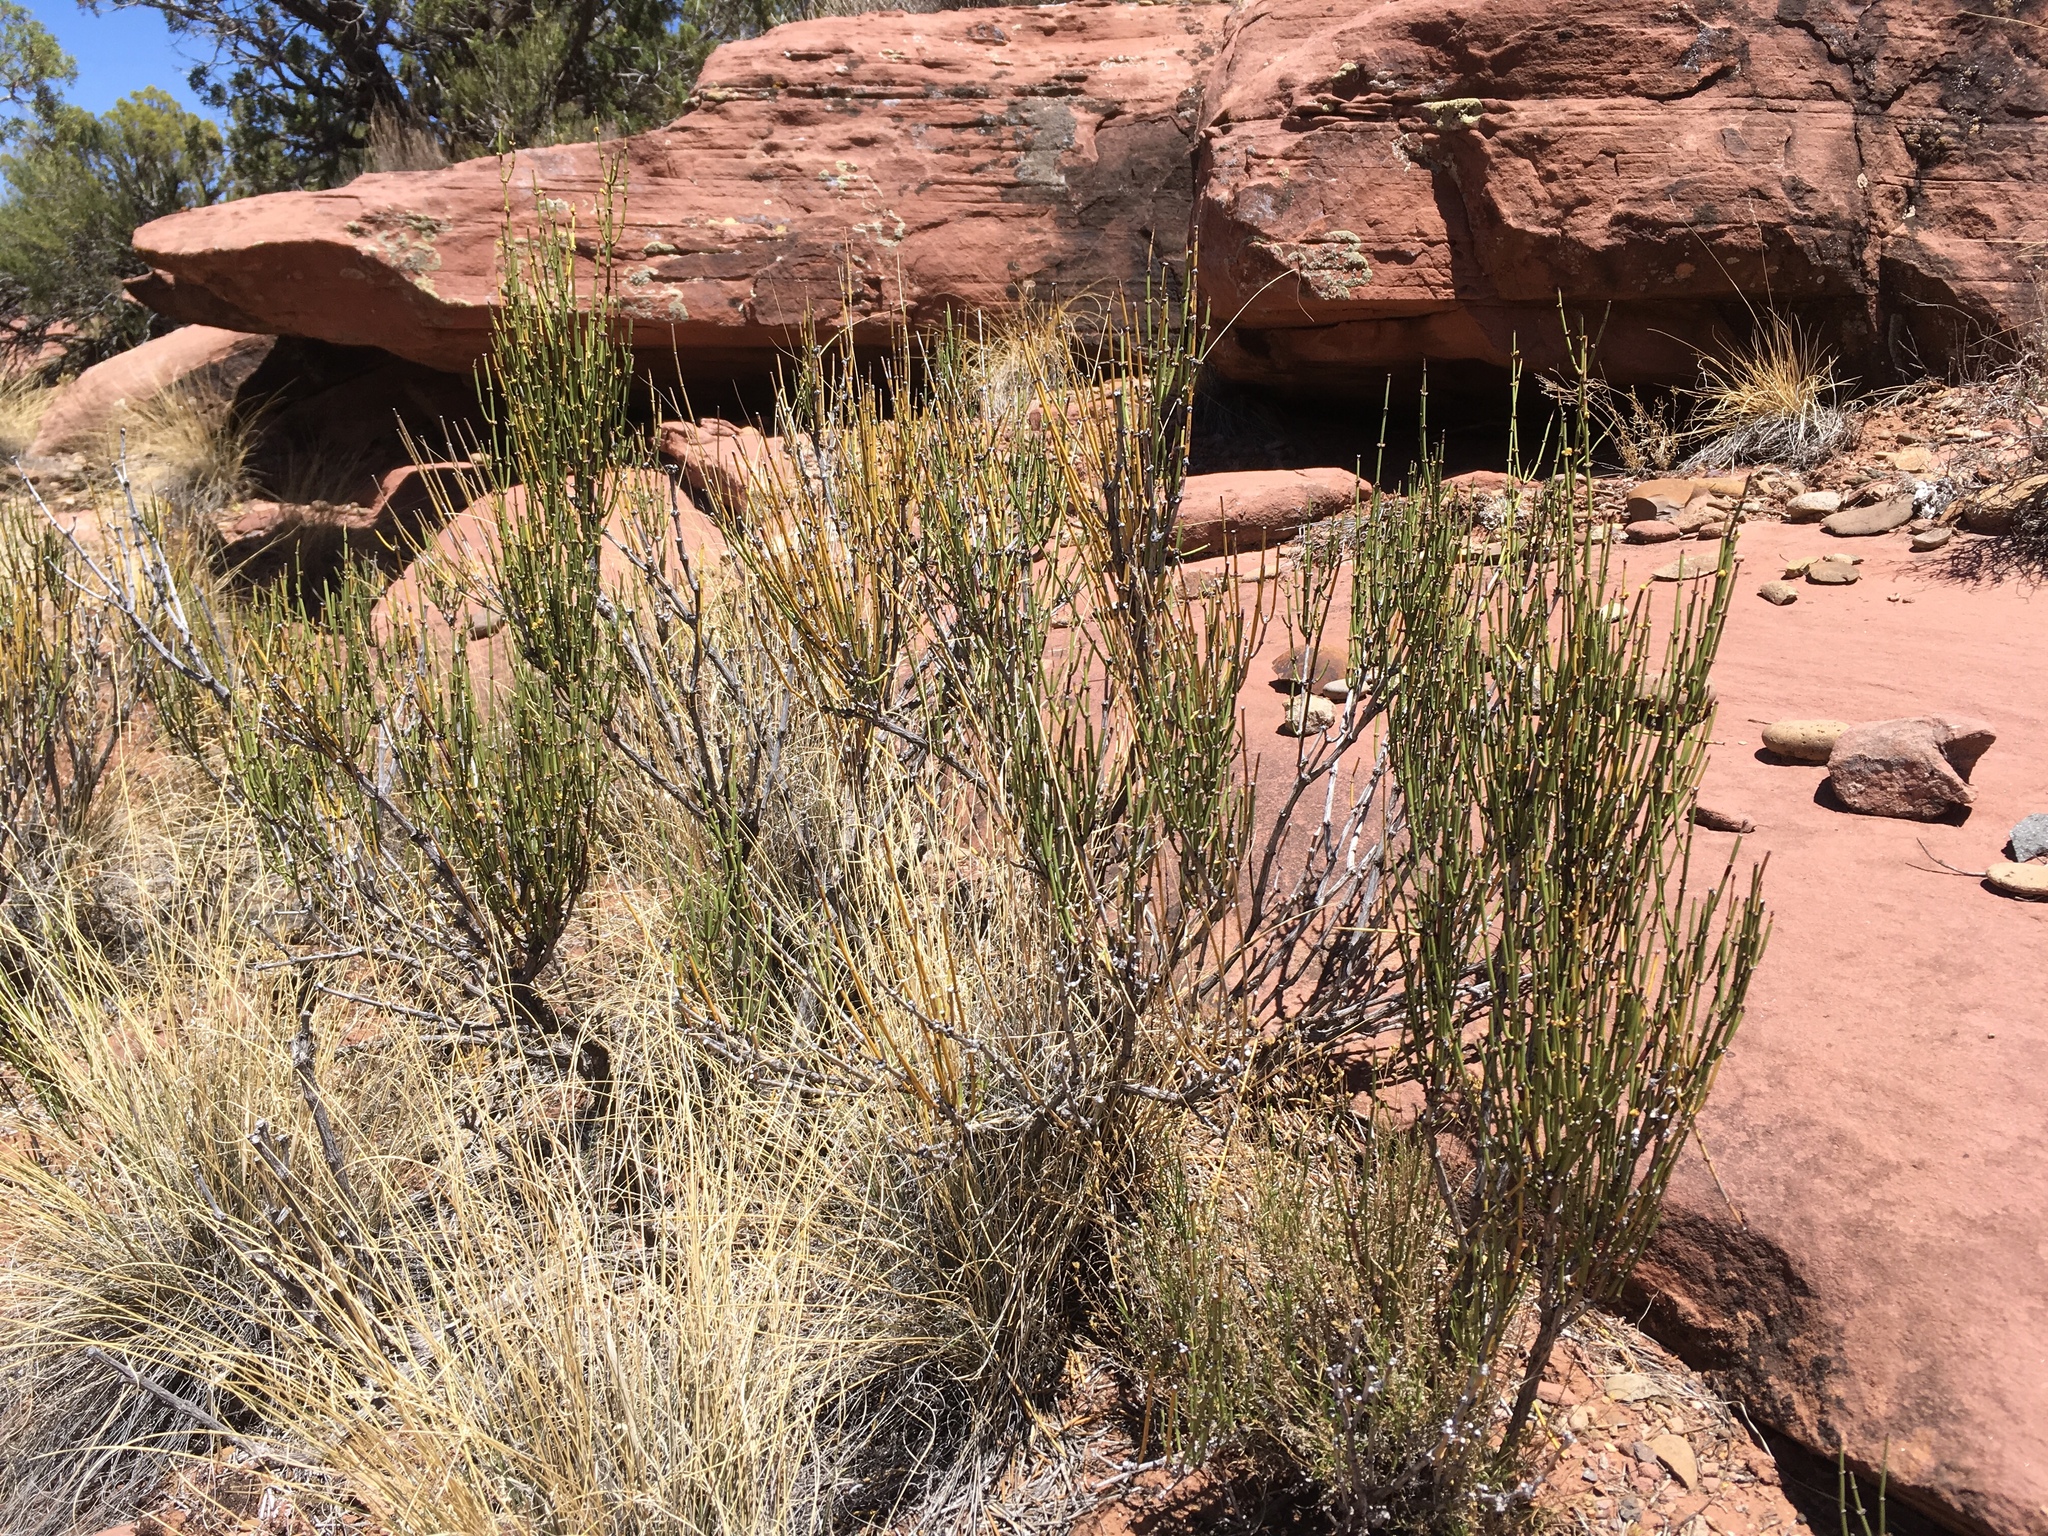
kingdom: Plantae
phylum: Tracheophyta
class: Gnetopsida
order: Ephedrales
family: Ephedraceae
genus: Ephedra
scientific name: Ephedra viridis
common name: Green ephedra
